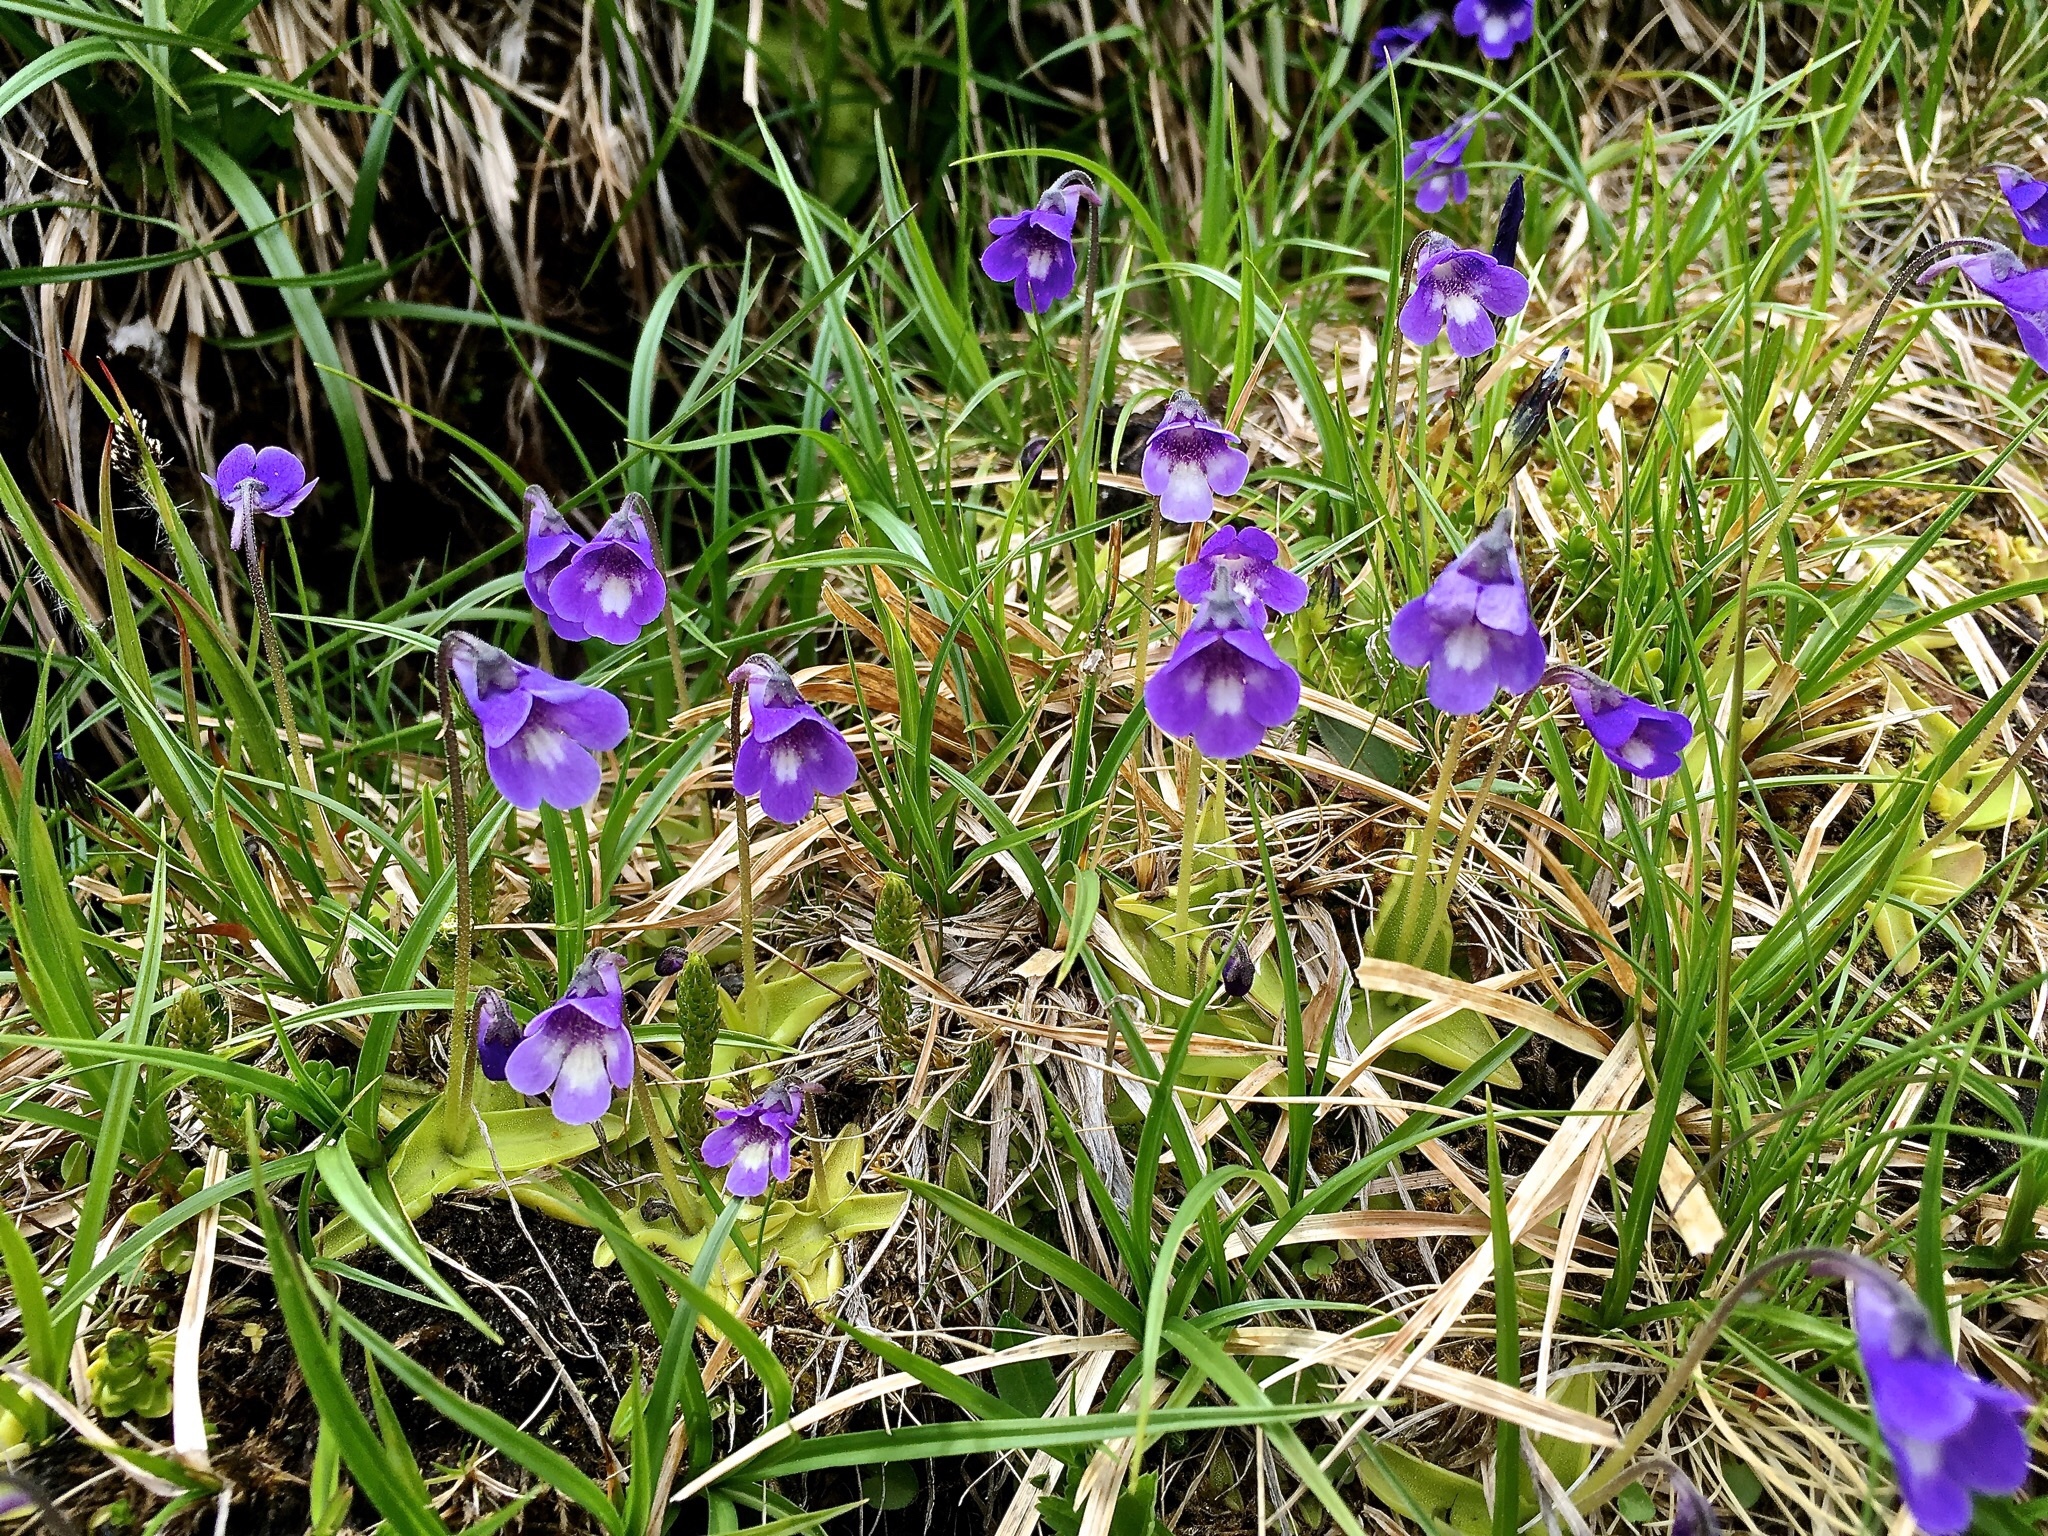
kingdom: Plantae
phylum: Tracheophyta
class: Magnoliopsida
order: Lamiales
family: Lentibulariaceae
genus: Pinguicula
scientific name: Pinguicula leptoceras
